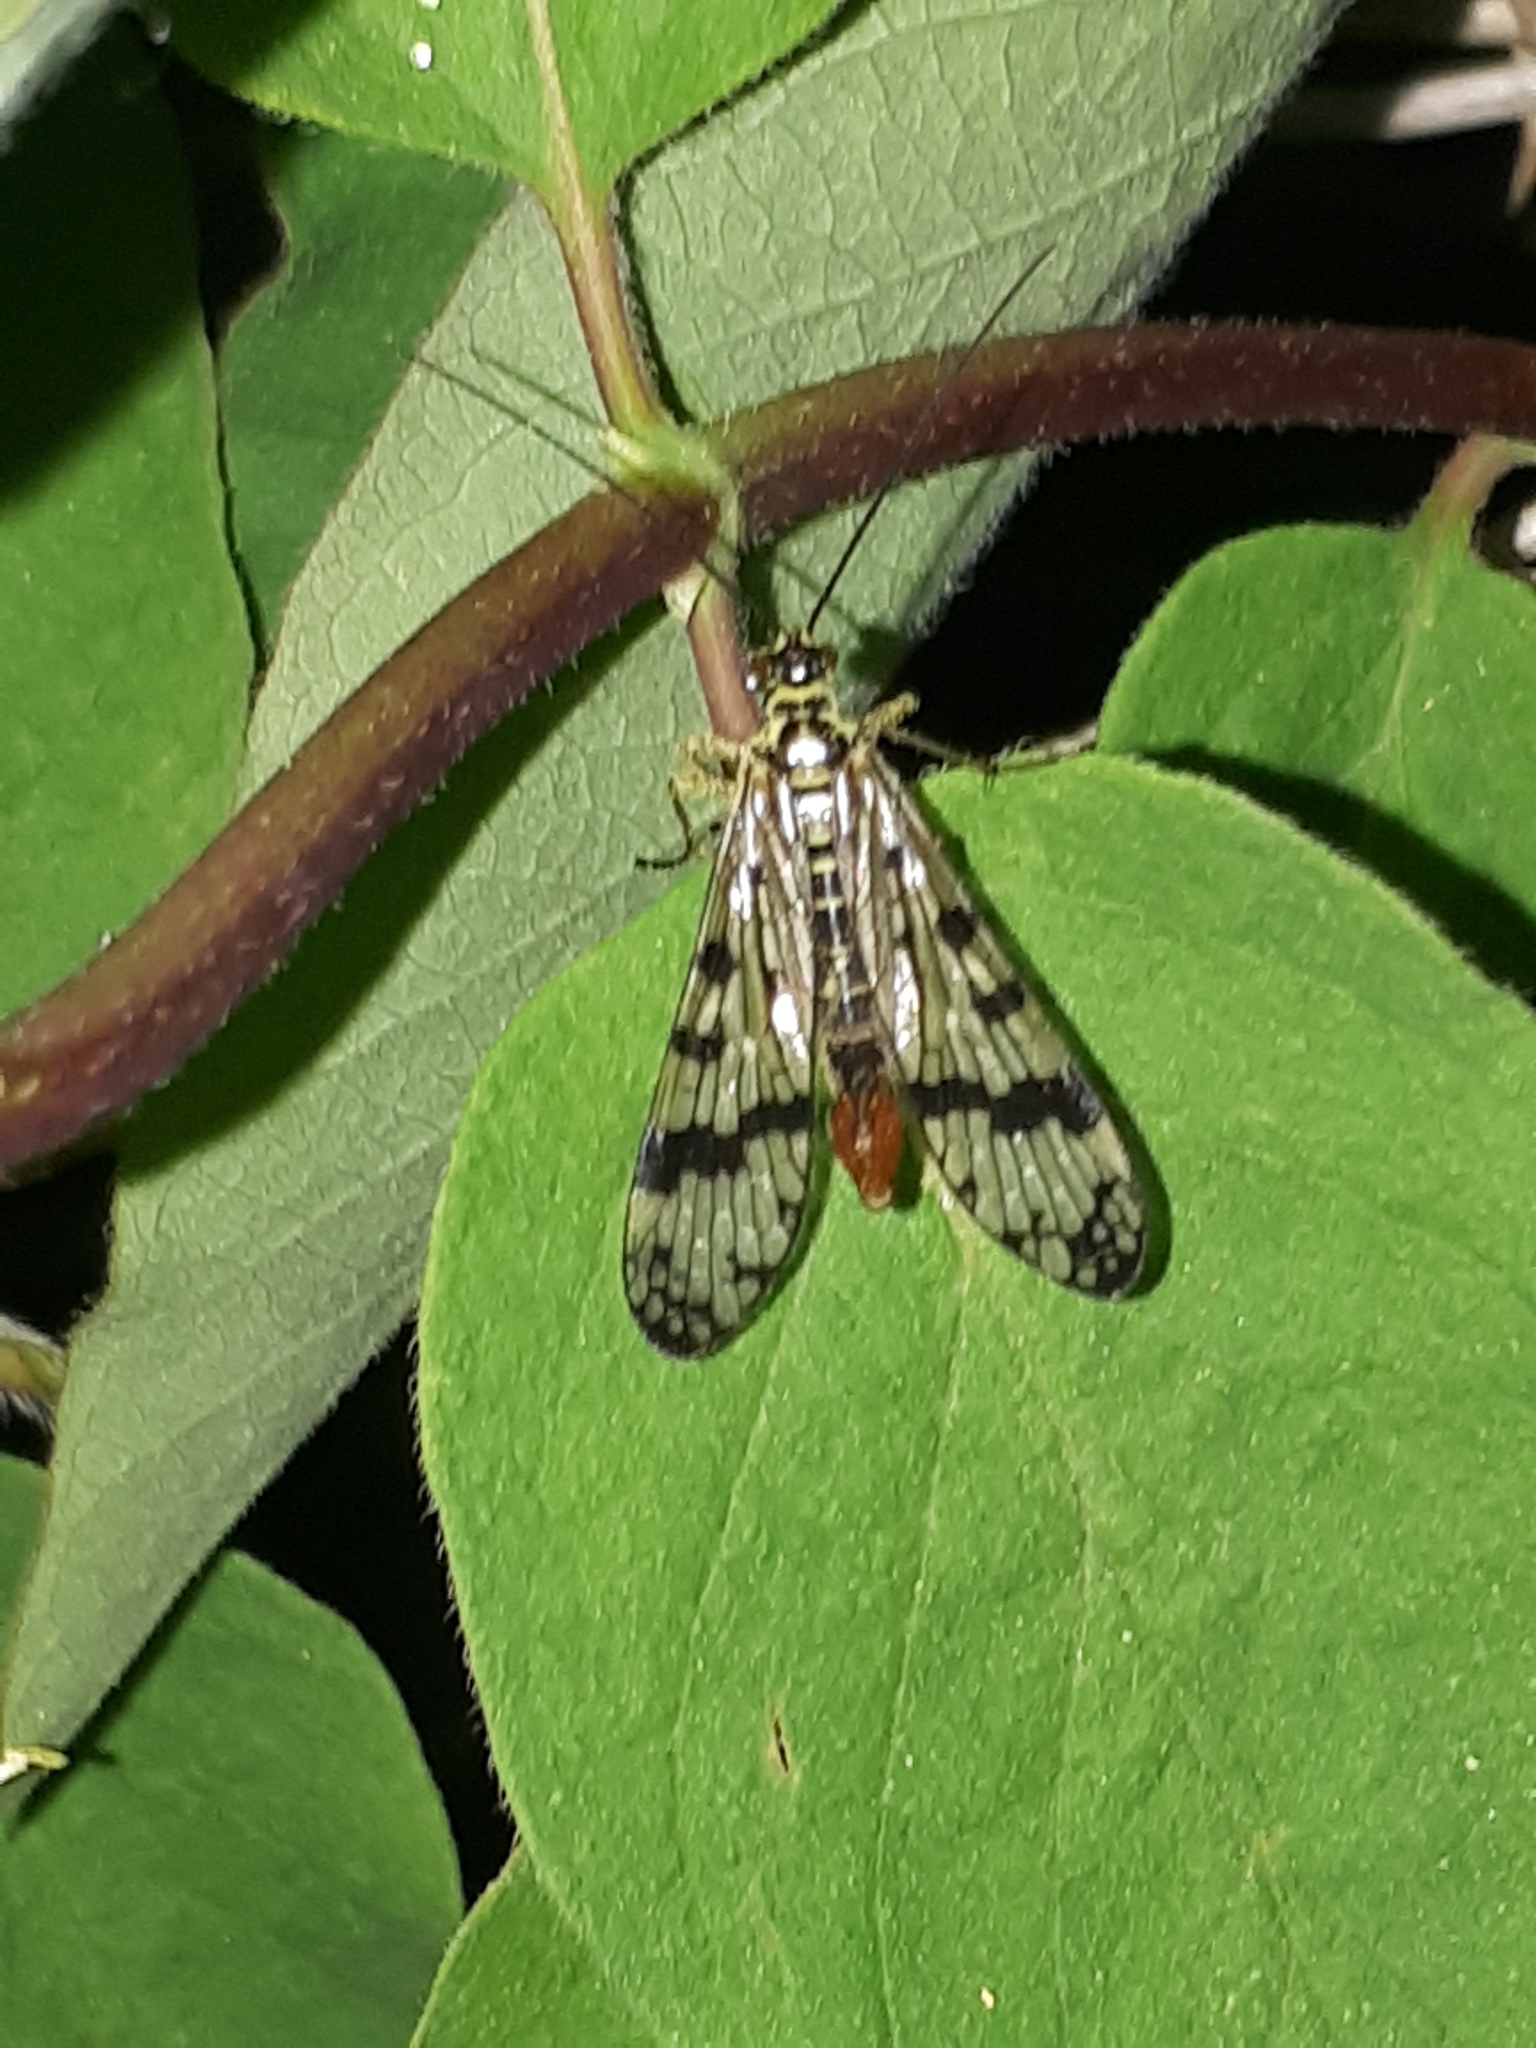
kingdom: Animalia
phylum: Arthropoda
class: Insecta
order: Mecoptera
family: Panorpidae
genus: Panorpa
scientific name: Panorpa communis
